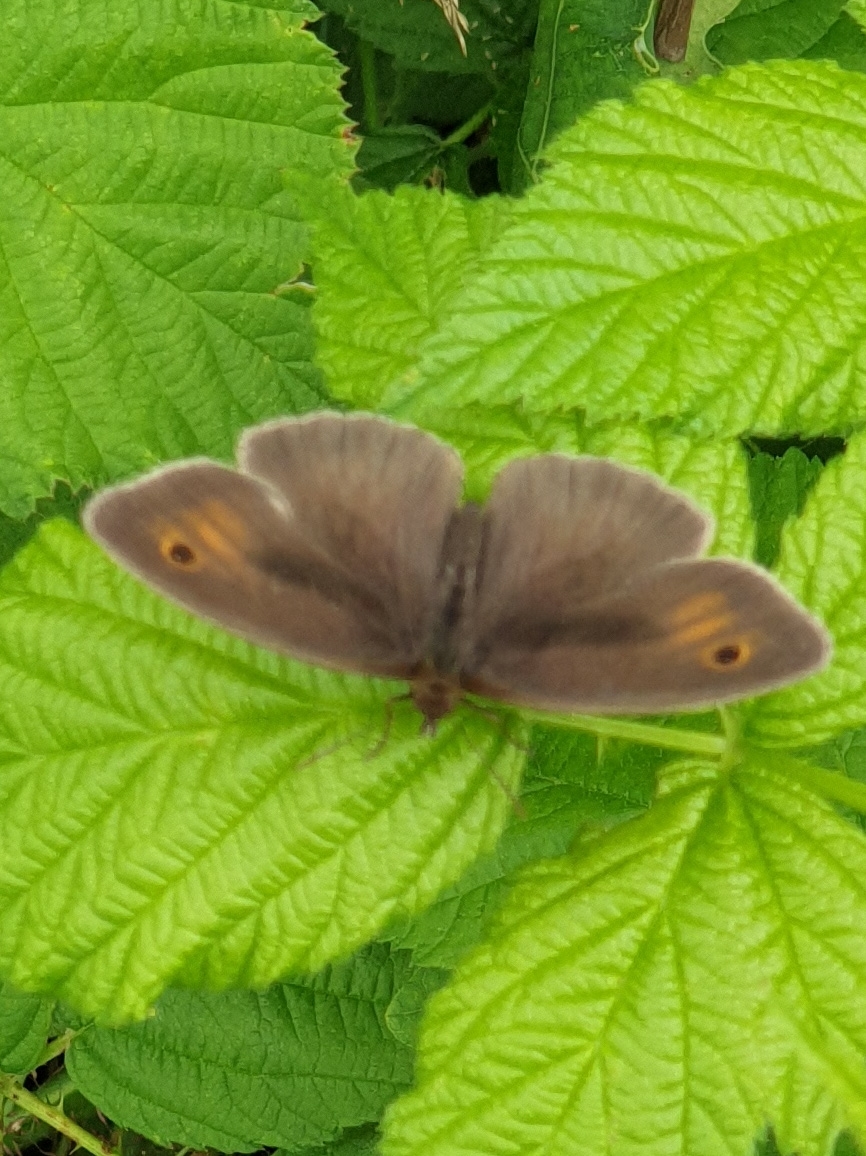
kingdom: Animalia
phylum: Arthropoda
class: Insecta
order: Lepidoptera
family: Nymphalidae
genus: Maniola
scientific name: Maniola jurtina
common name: Meadow brown
